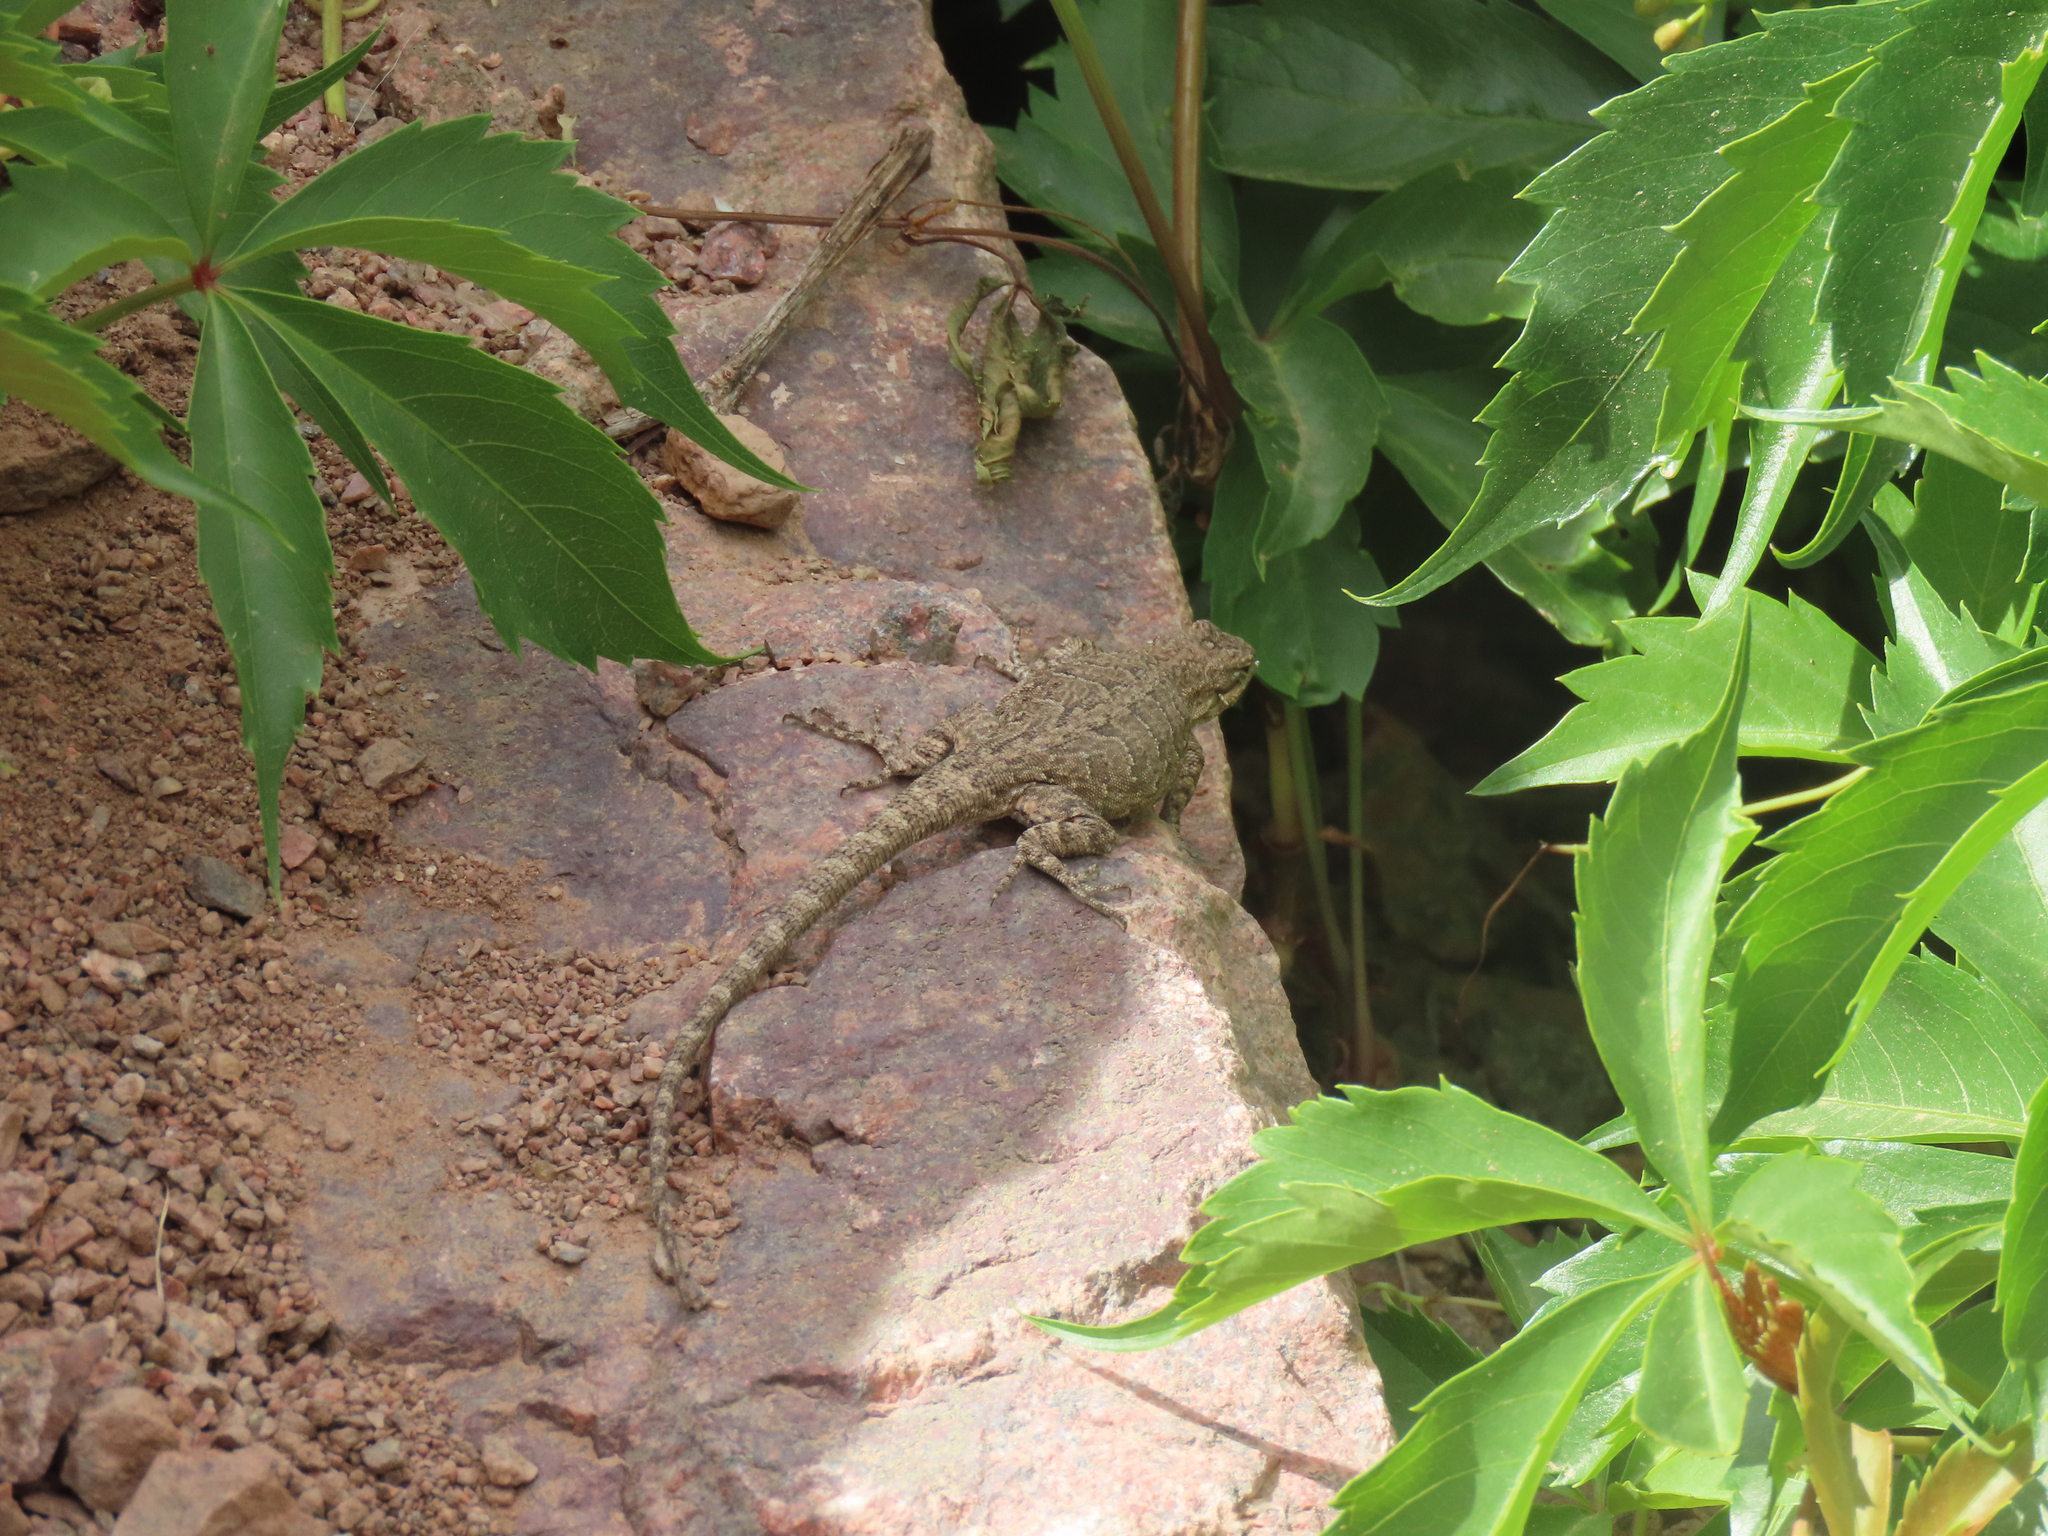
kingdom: Animalia
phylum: Chordata
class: Squamata
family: Phrynosomatidae
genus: Urosaurus
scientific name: Urosaurus ornatus
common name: Ornate tree lizard
